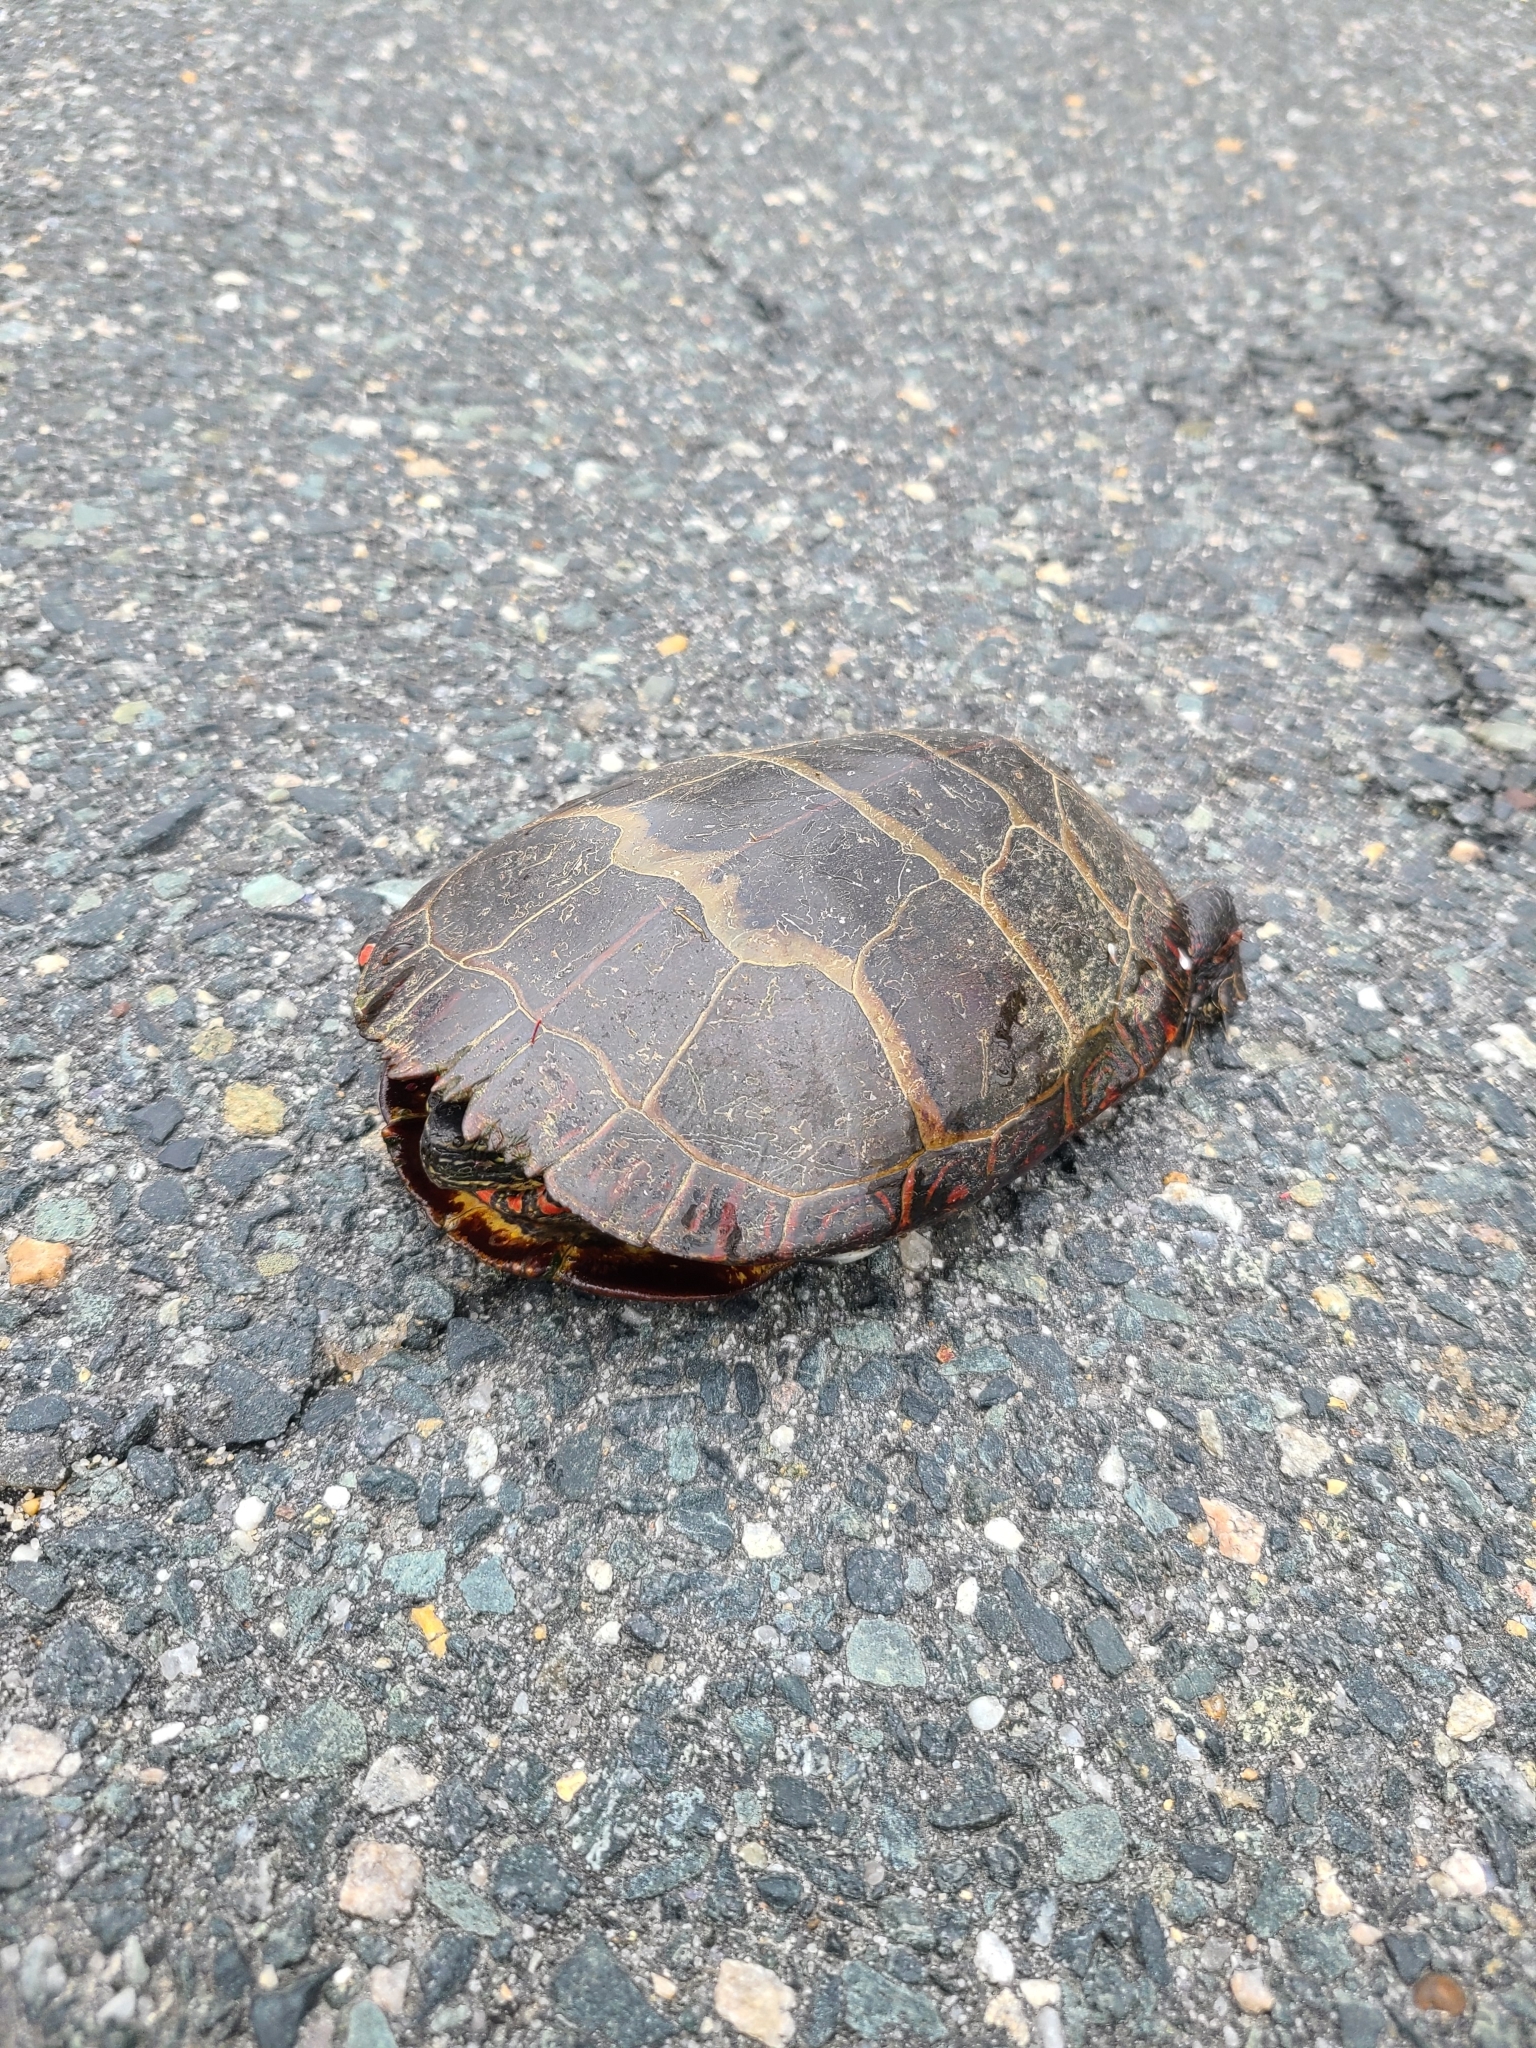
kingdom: Animalia
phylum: Chordata
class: Testudines
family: Emydidae
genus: Chrysemys
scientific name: Chrysemys picta
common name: Painted turtle
